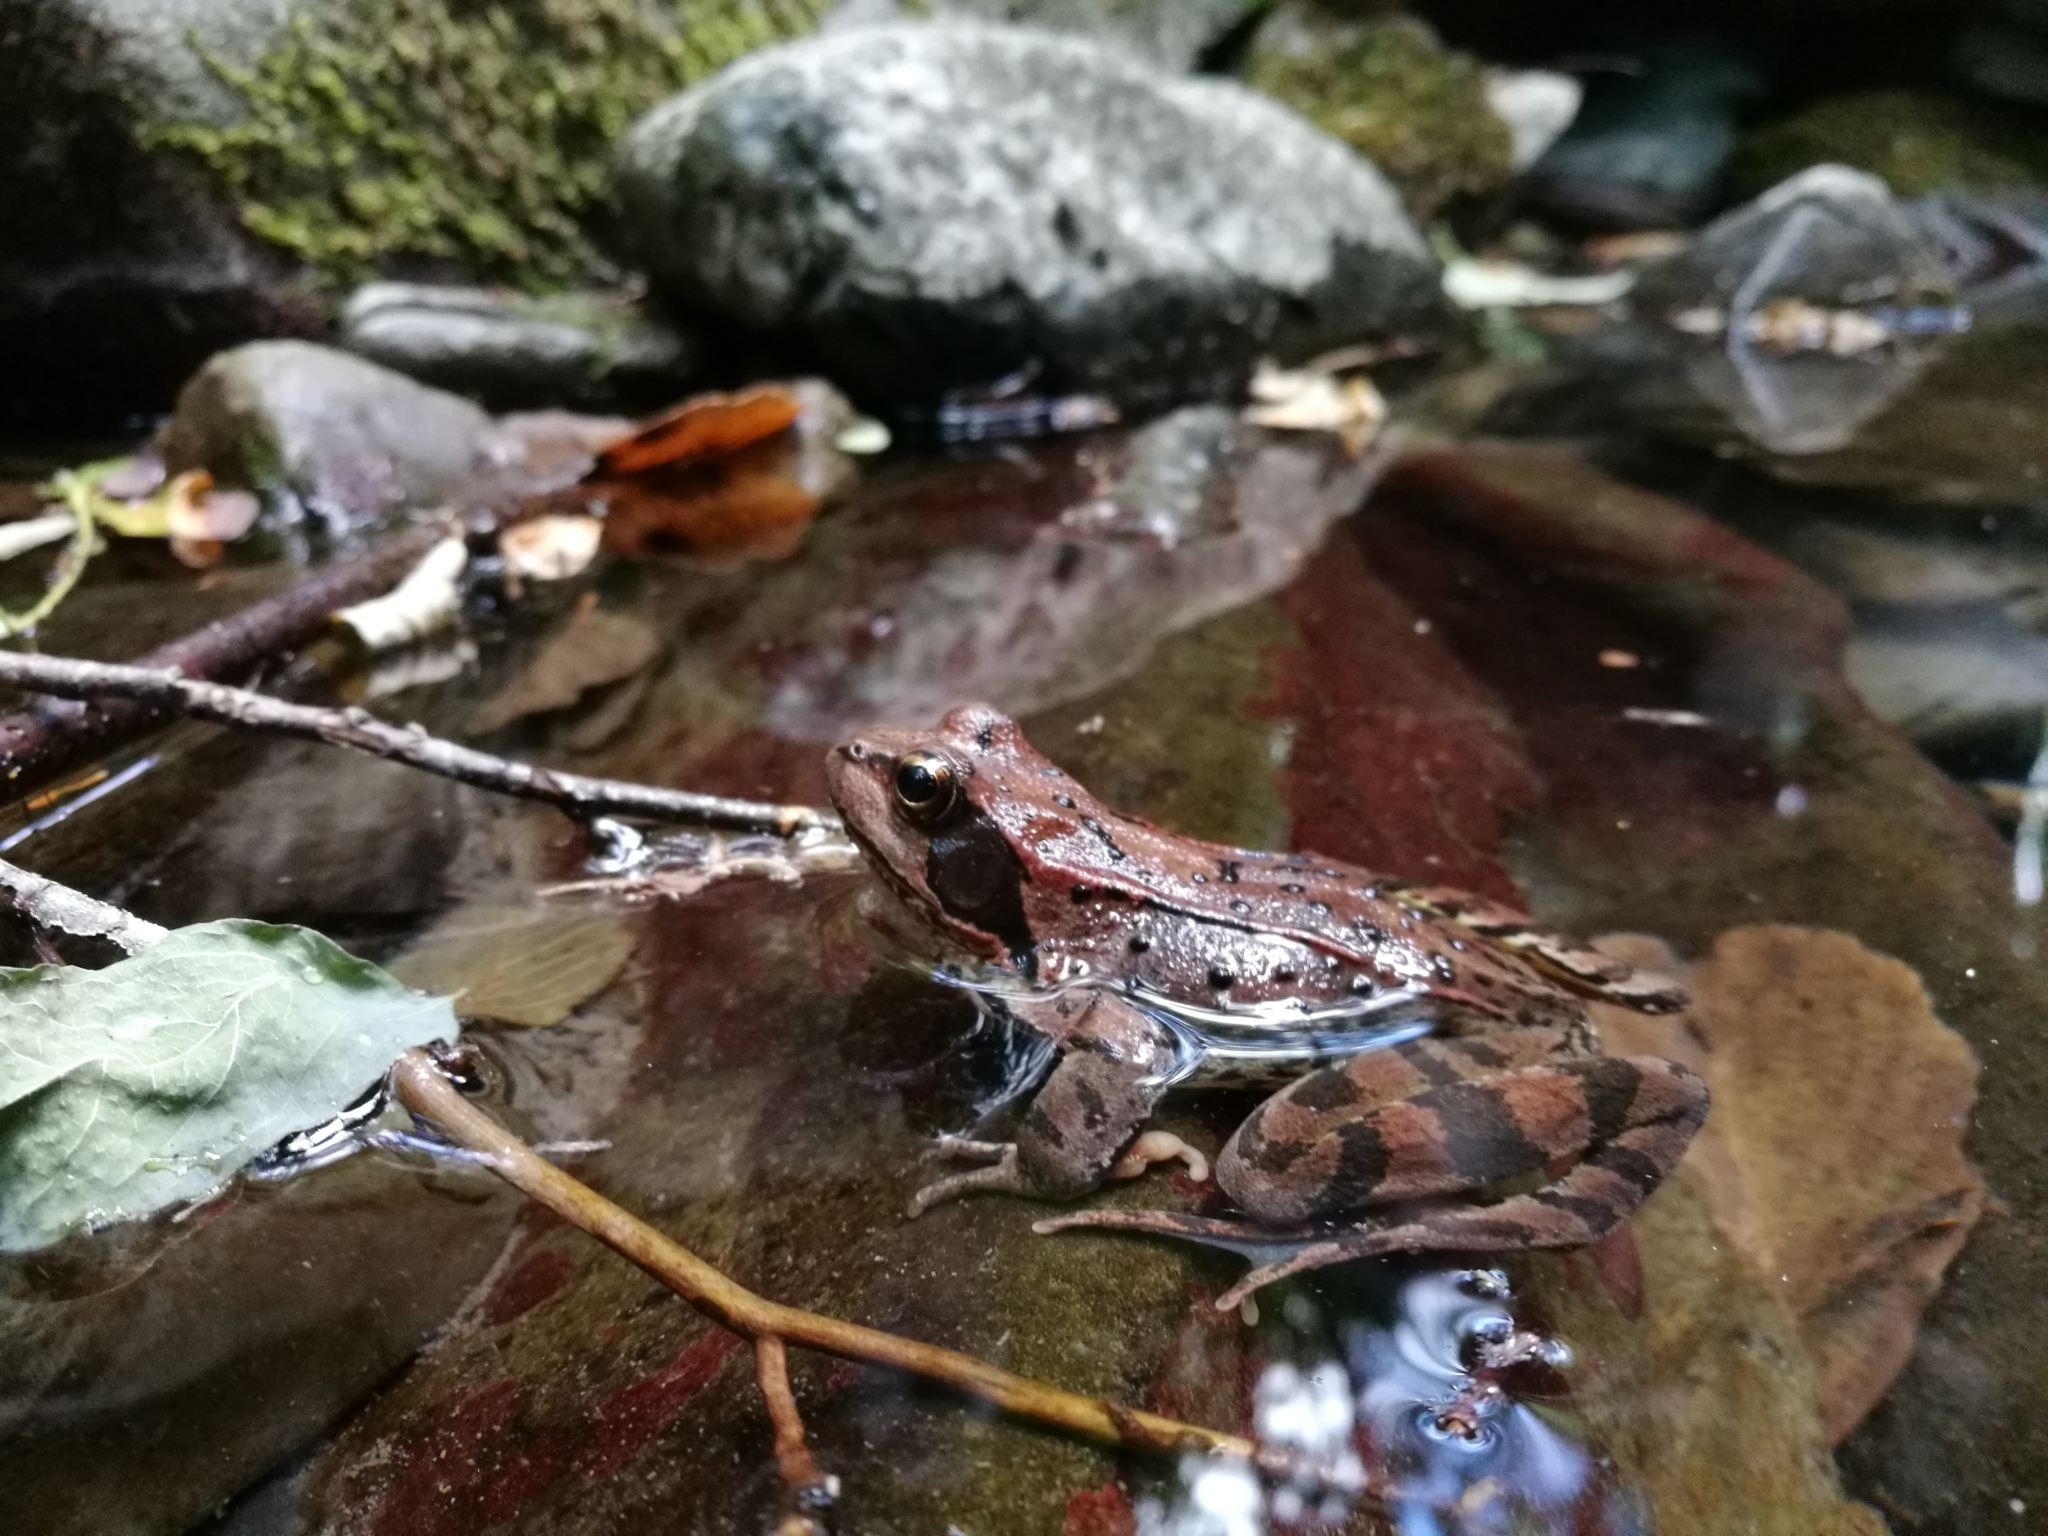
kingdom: Animalia
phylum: Chordata
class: Amphibia
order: Anura
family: Ranidae
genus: Rana
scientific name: Rana temporaria
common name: Common frog
